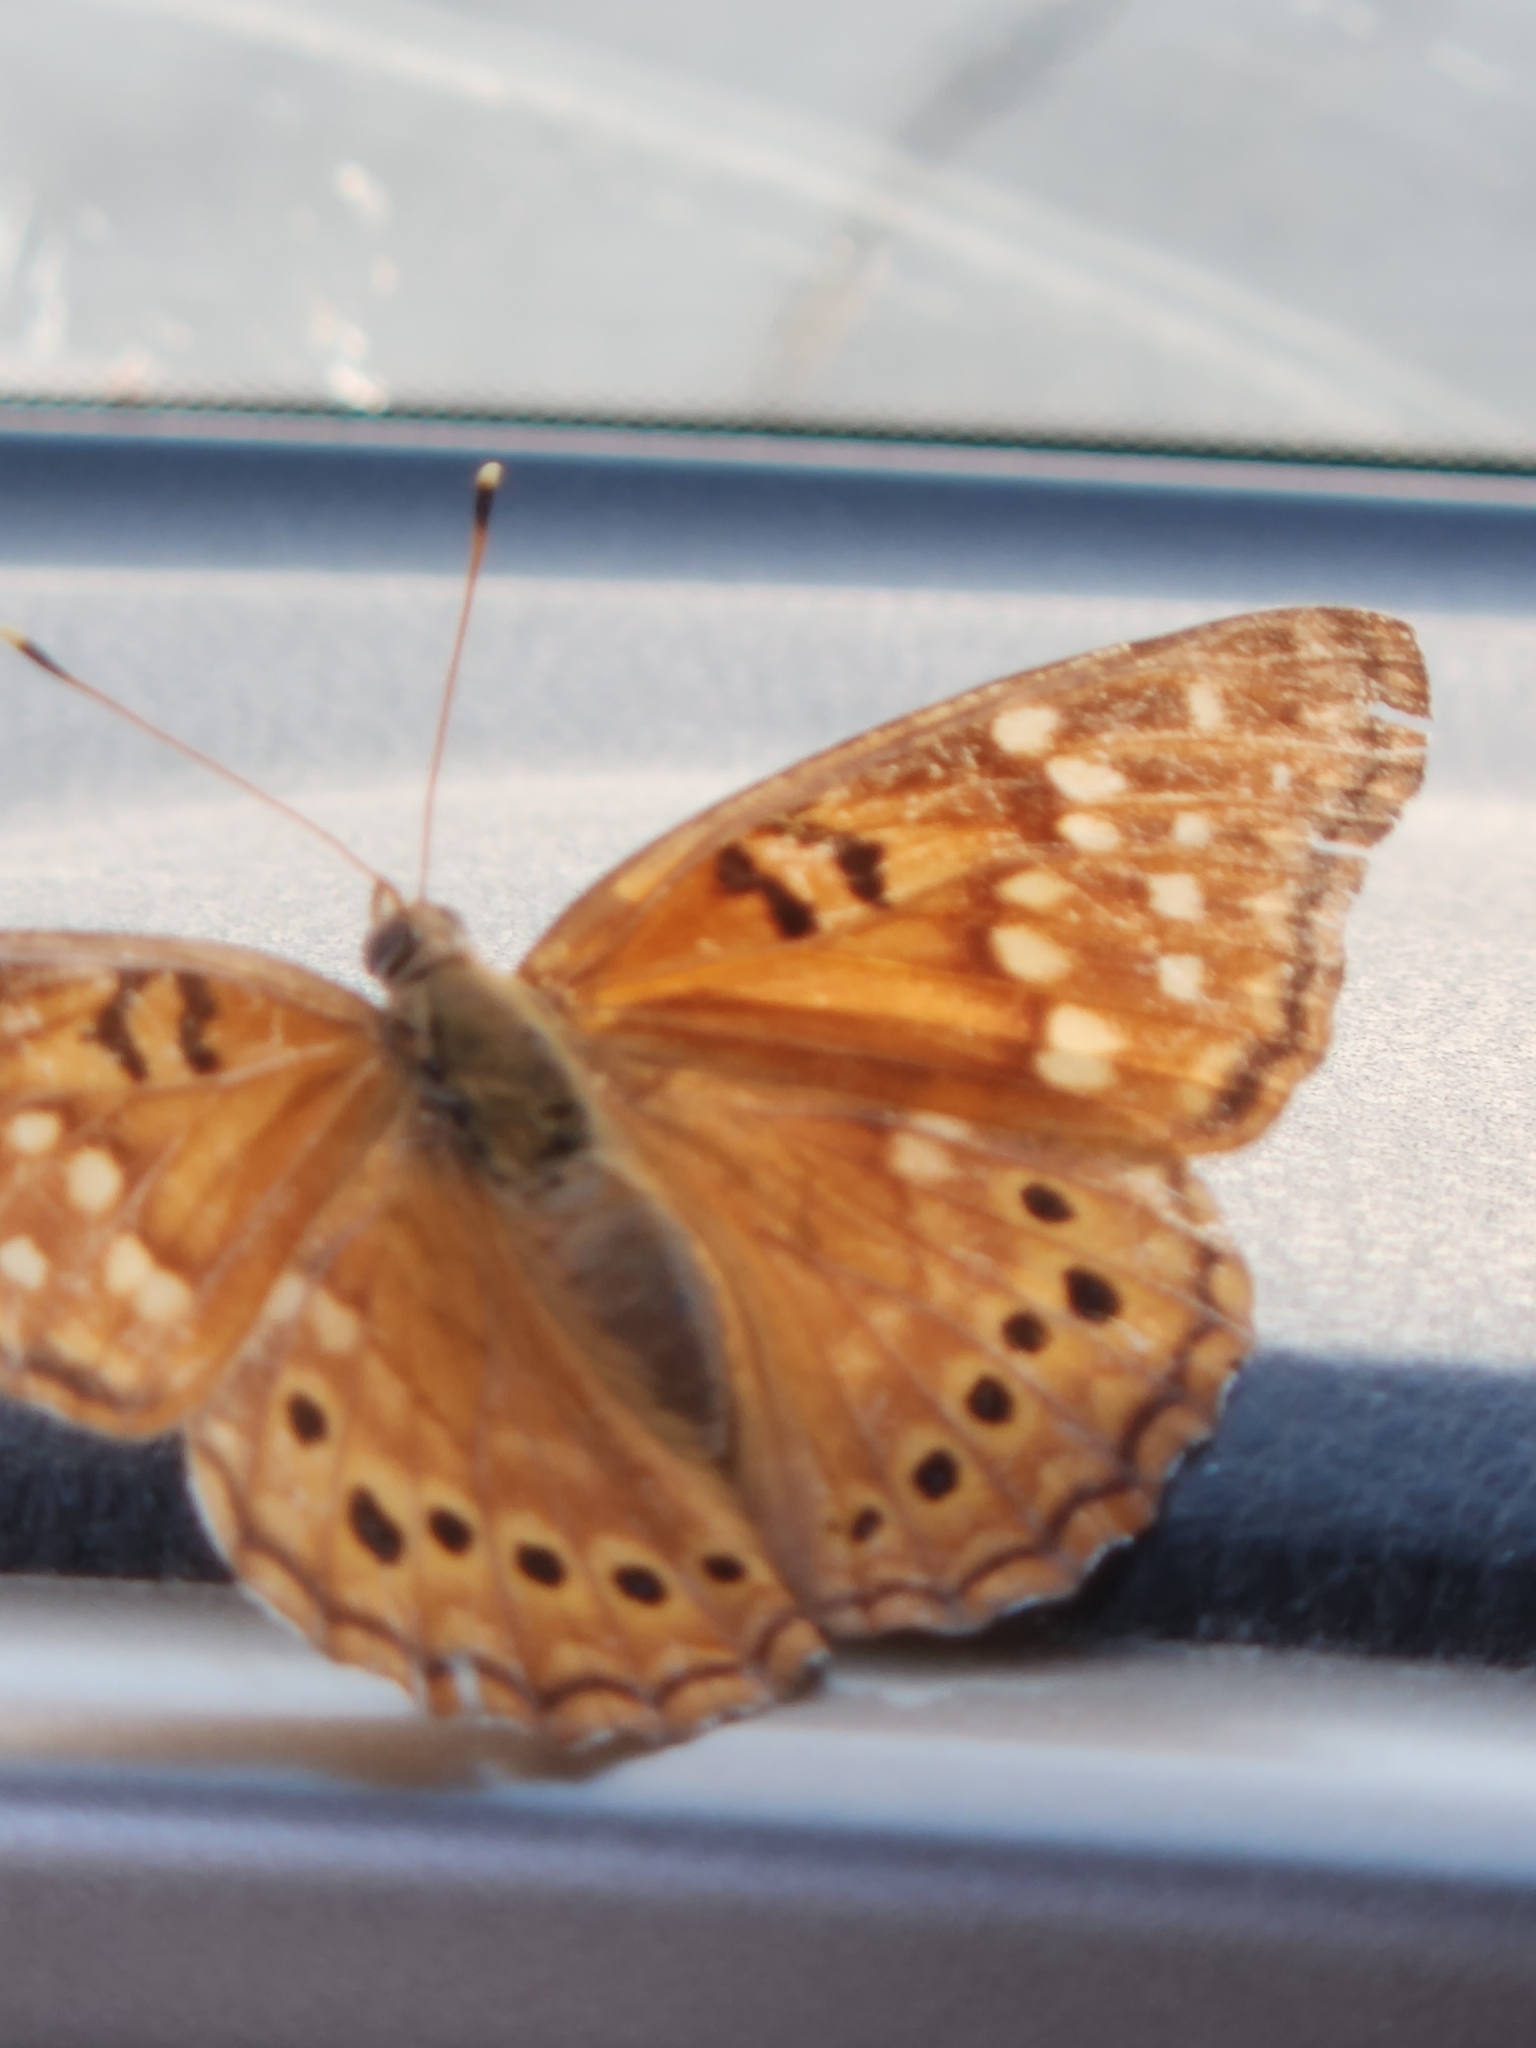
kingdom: Animalia
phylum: Arthropoda
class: Insecta
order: Lepidoptera
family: Nymphalidae
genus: Asterocampa
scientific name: Asterocampa clyton
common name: Tawny emperor
